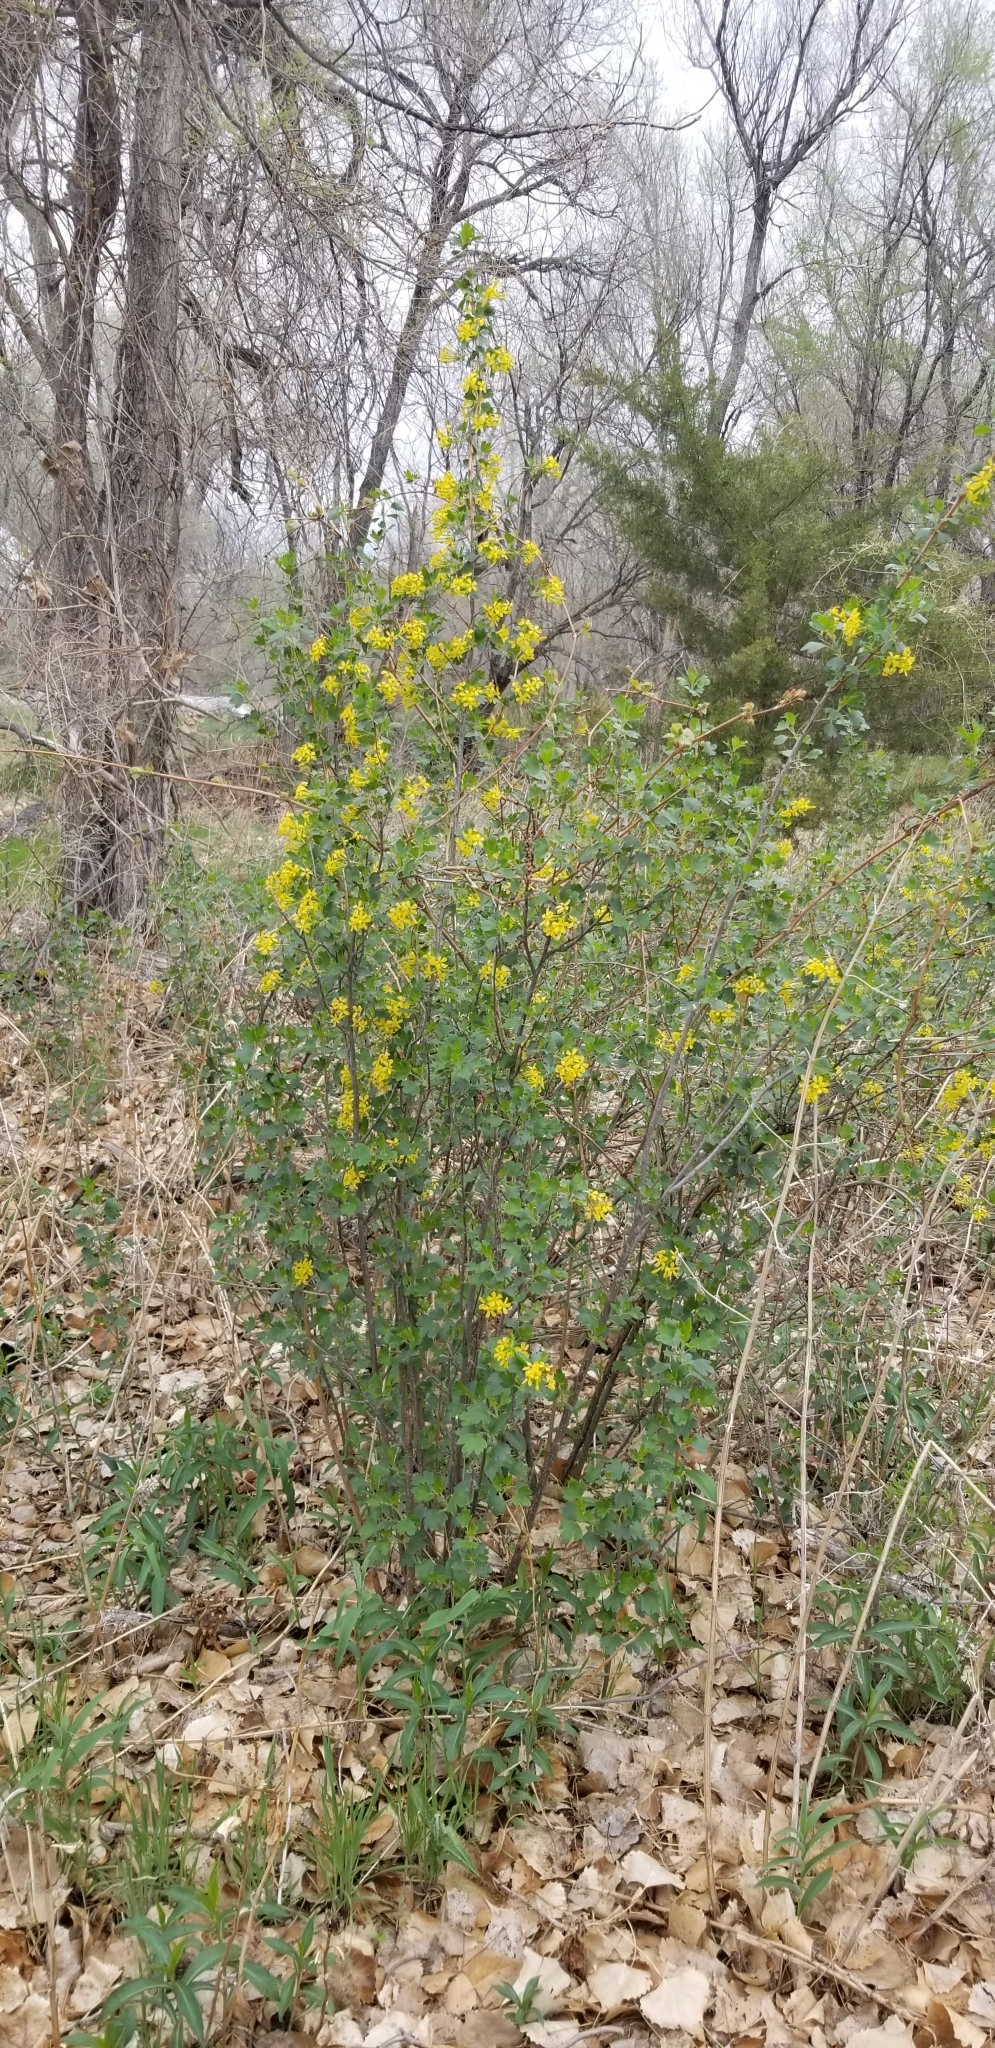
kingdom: Plantae
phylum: Tracheophyta
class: Magnoliopsida
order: Saxifragales
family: Grossulariaceae
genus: Ribes
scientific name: Ribes aureum
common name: Golden currant
